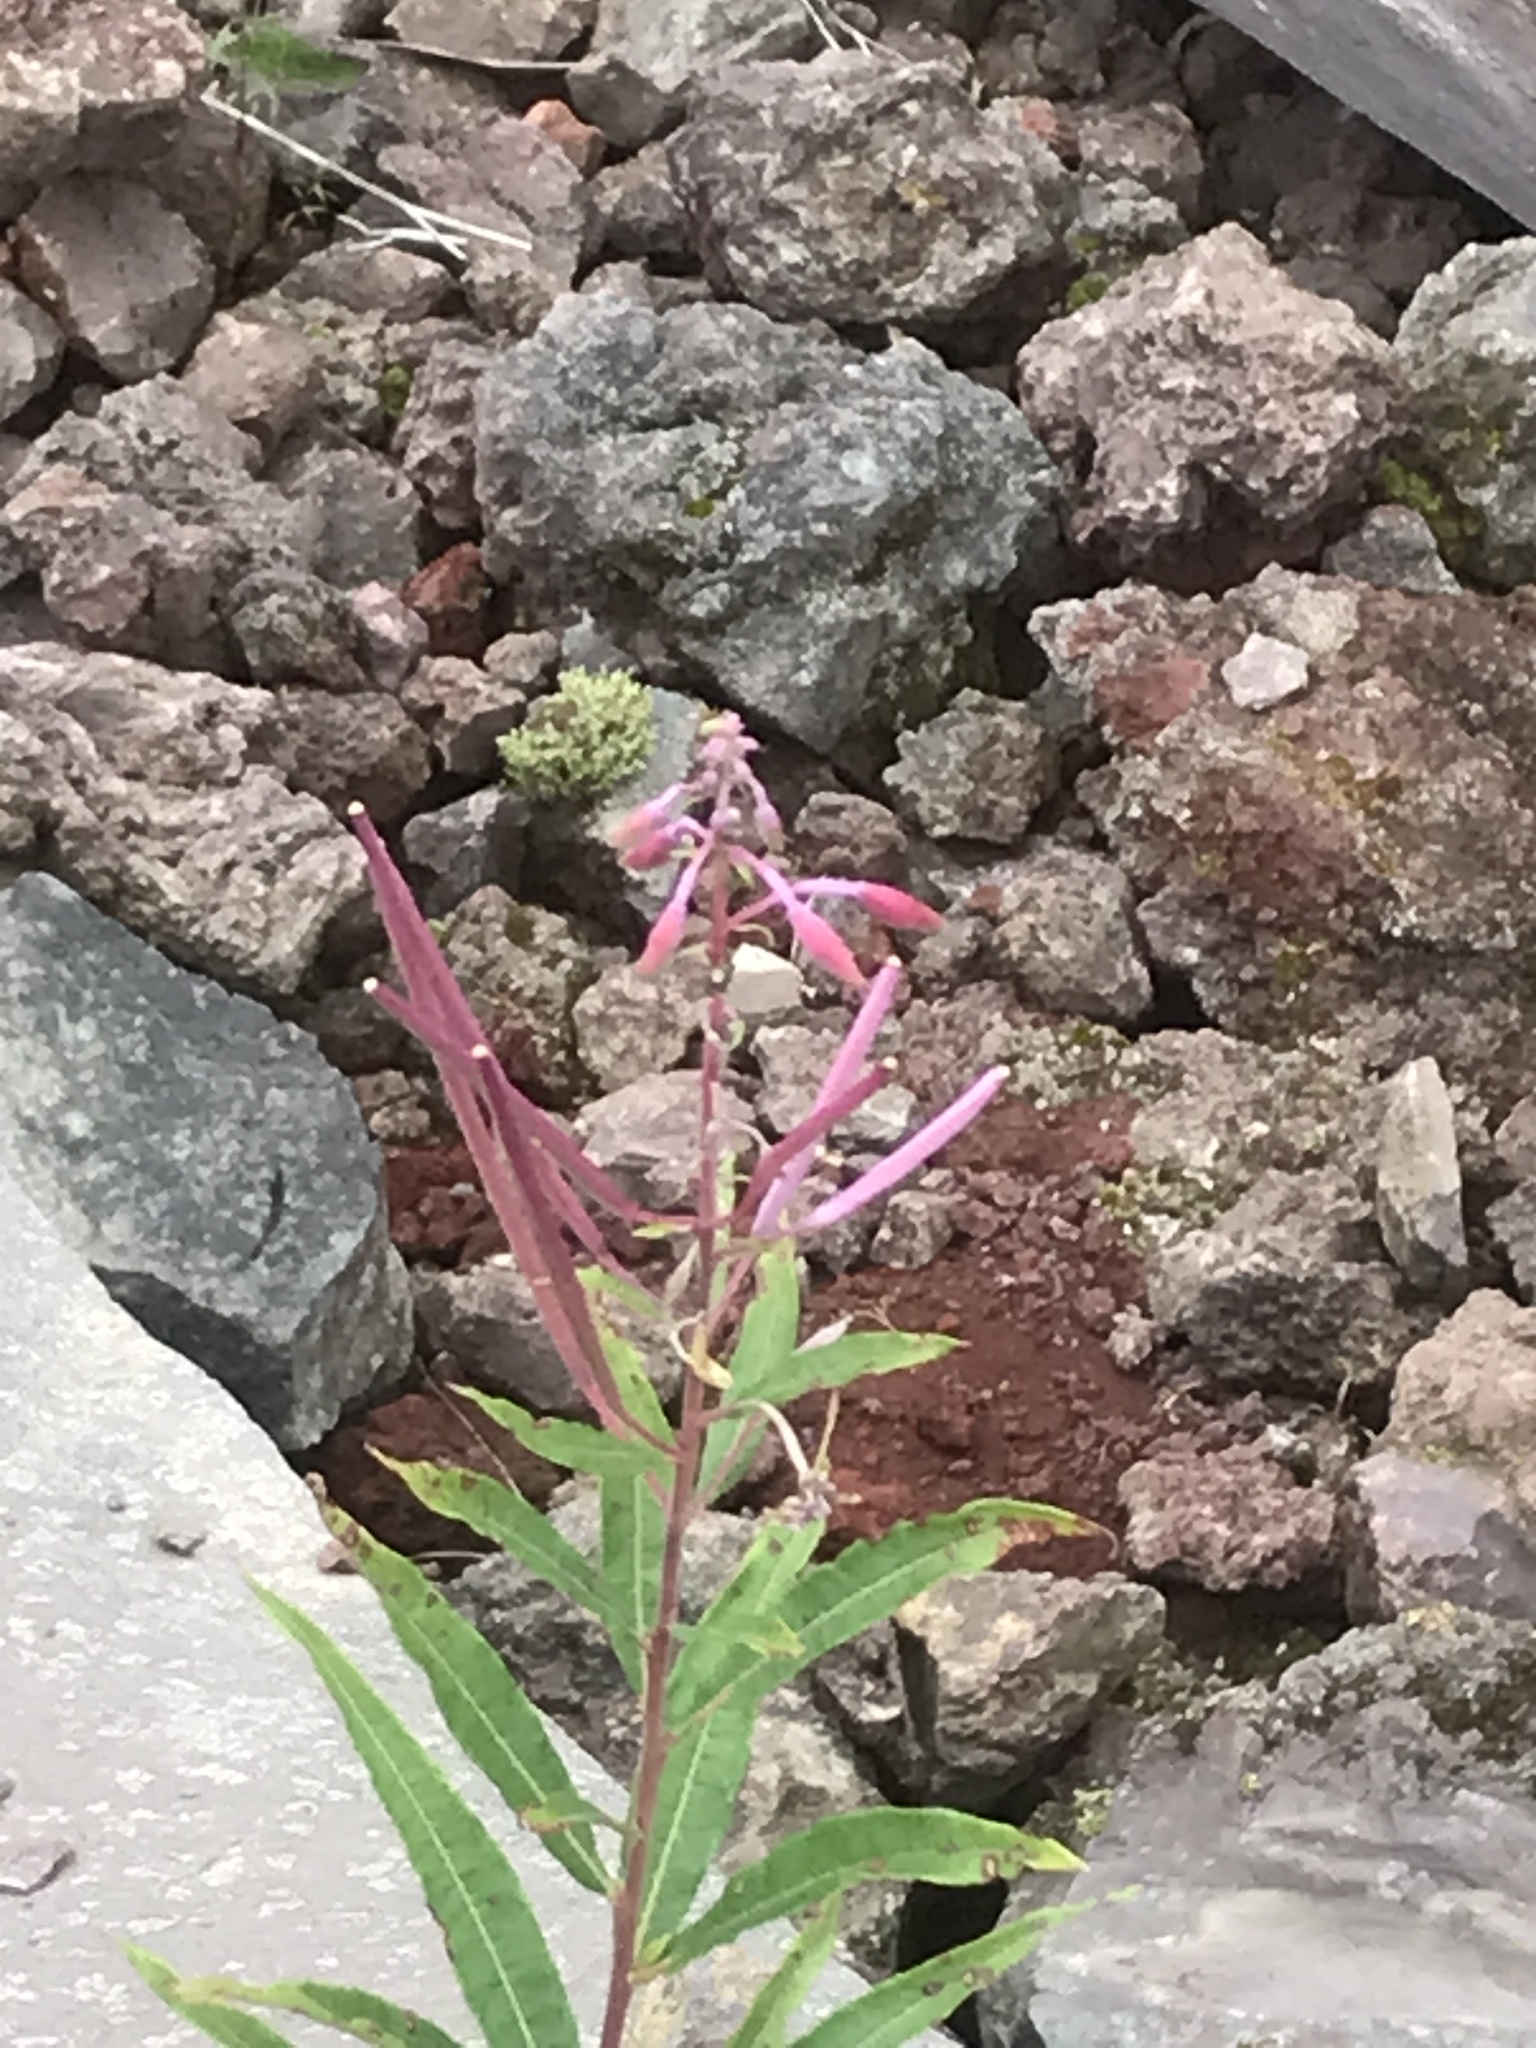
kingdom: Plantae
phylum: Tracheophyta
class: Magnoliopsida
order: Myrtales
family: Onagraceae
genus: Chamaenerion
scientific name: Chamaenerion angustifolium
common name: Fireweed
